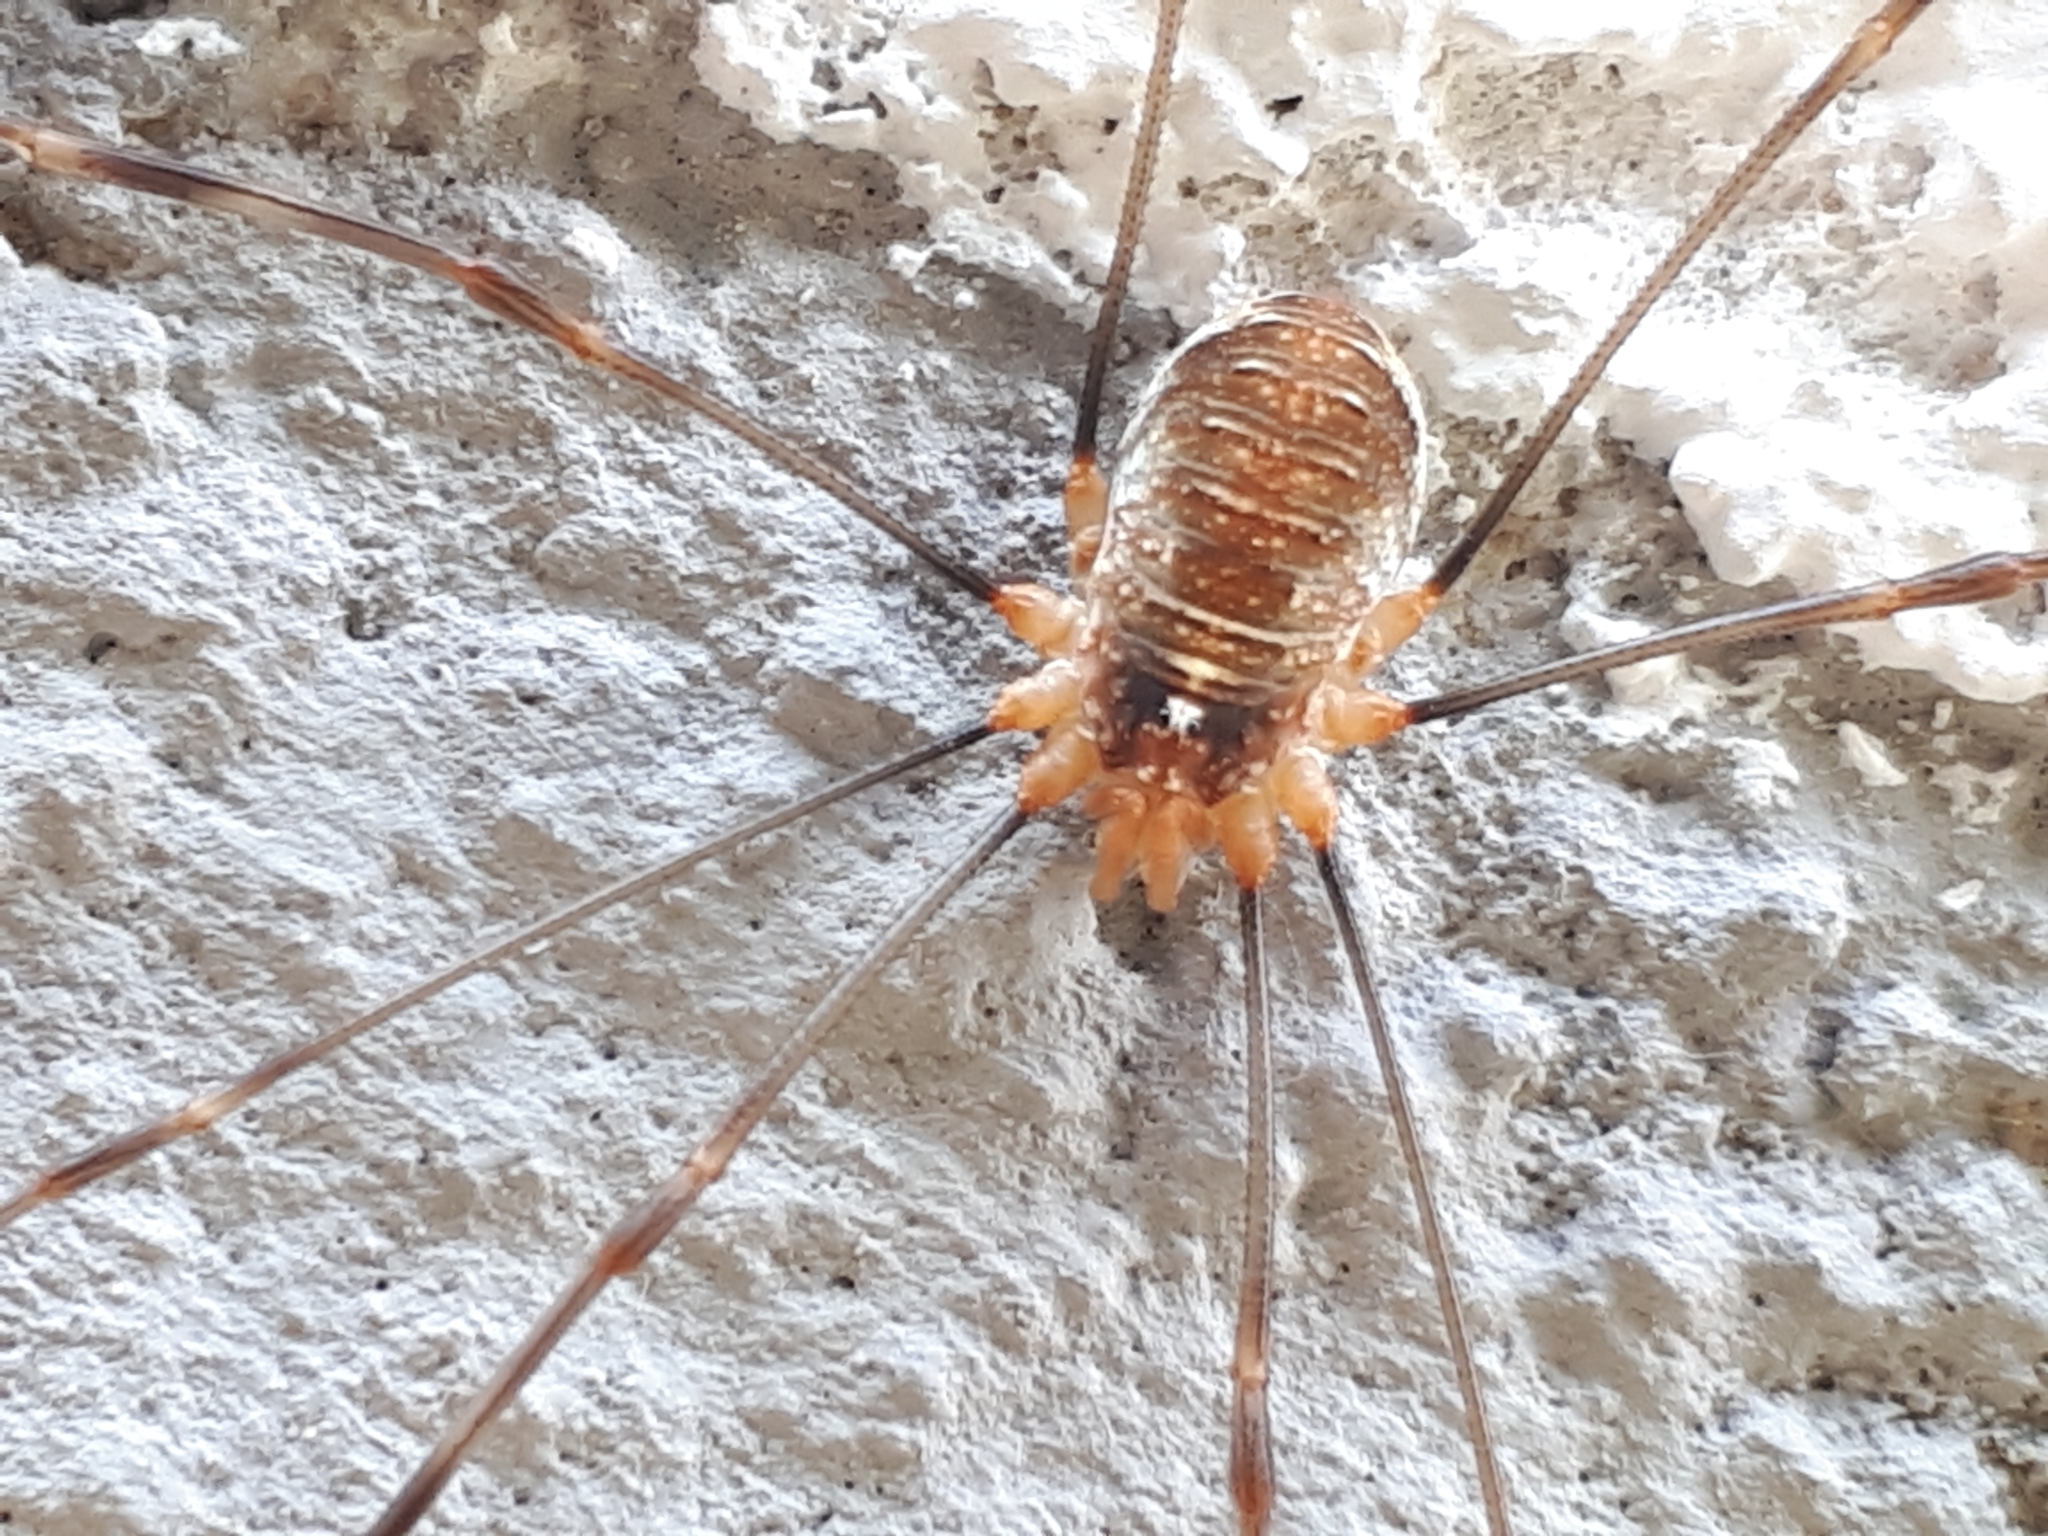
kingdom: Animalia
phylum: Arthropoda
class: Arachnida
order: Opiliones
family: Phalangiidae
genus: Opilio
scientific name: Opilio canestrinii
